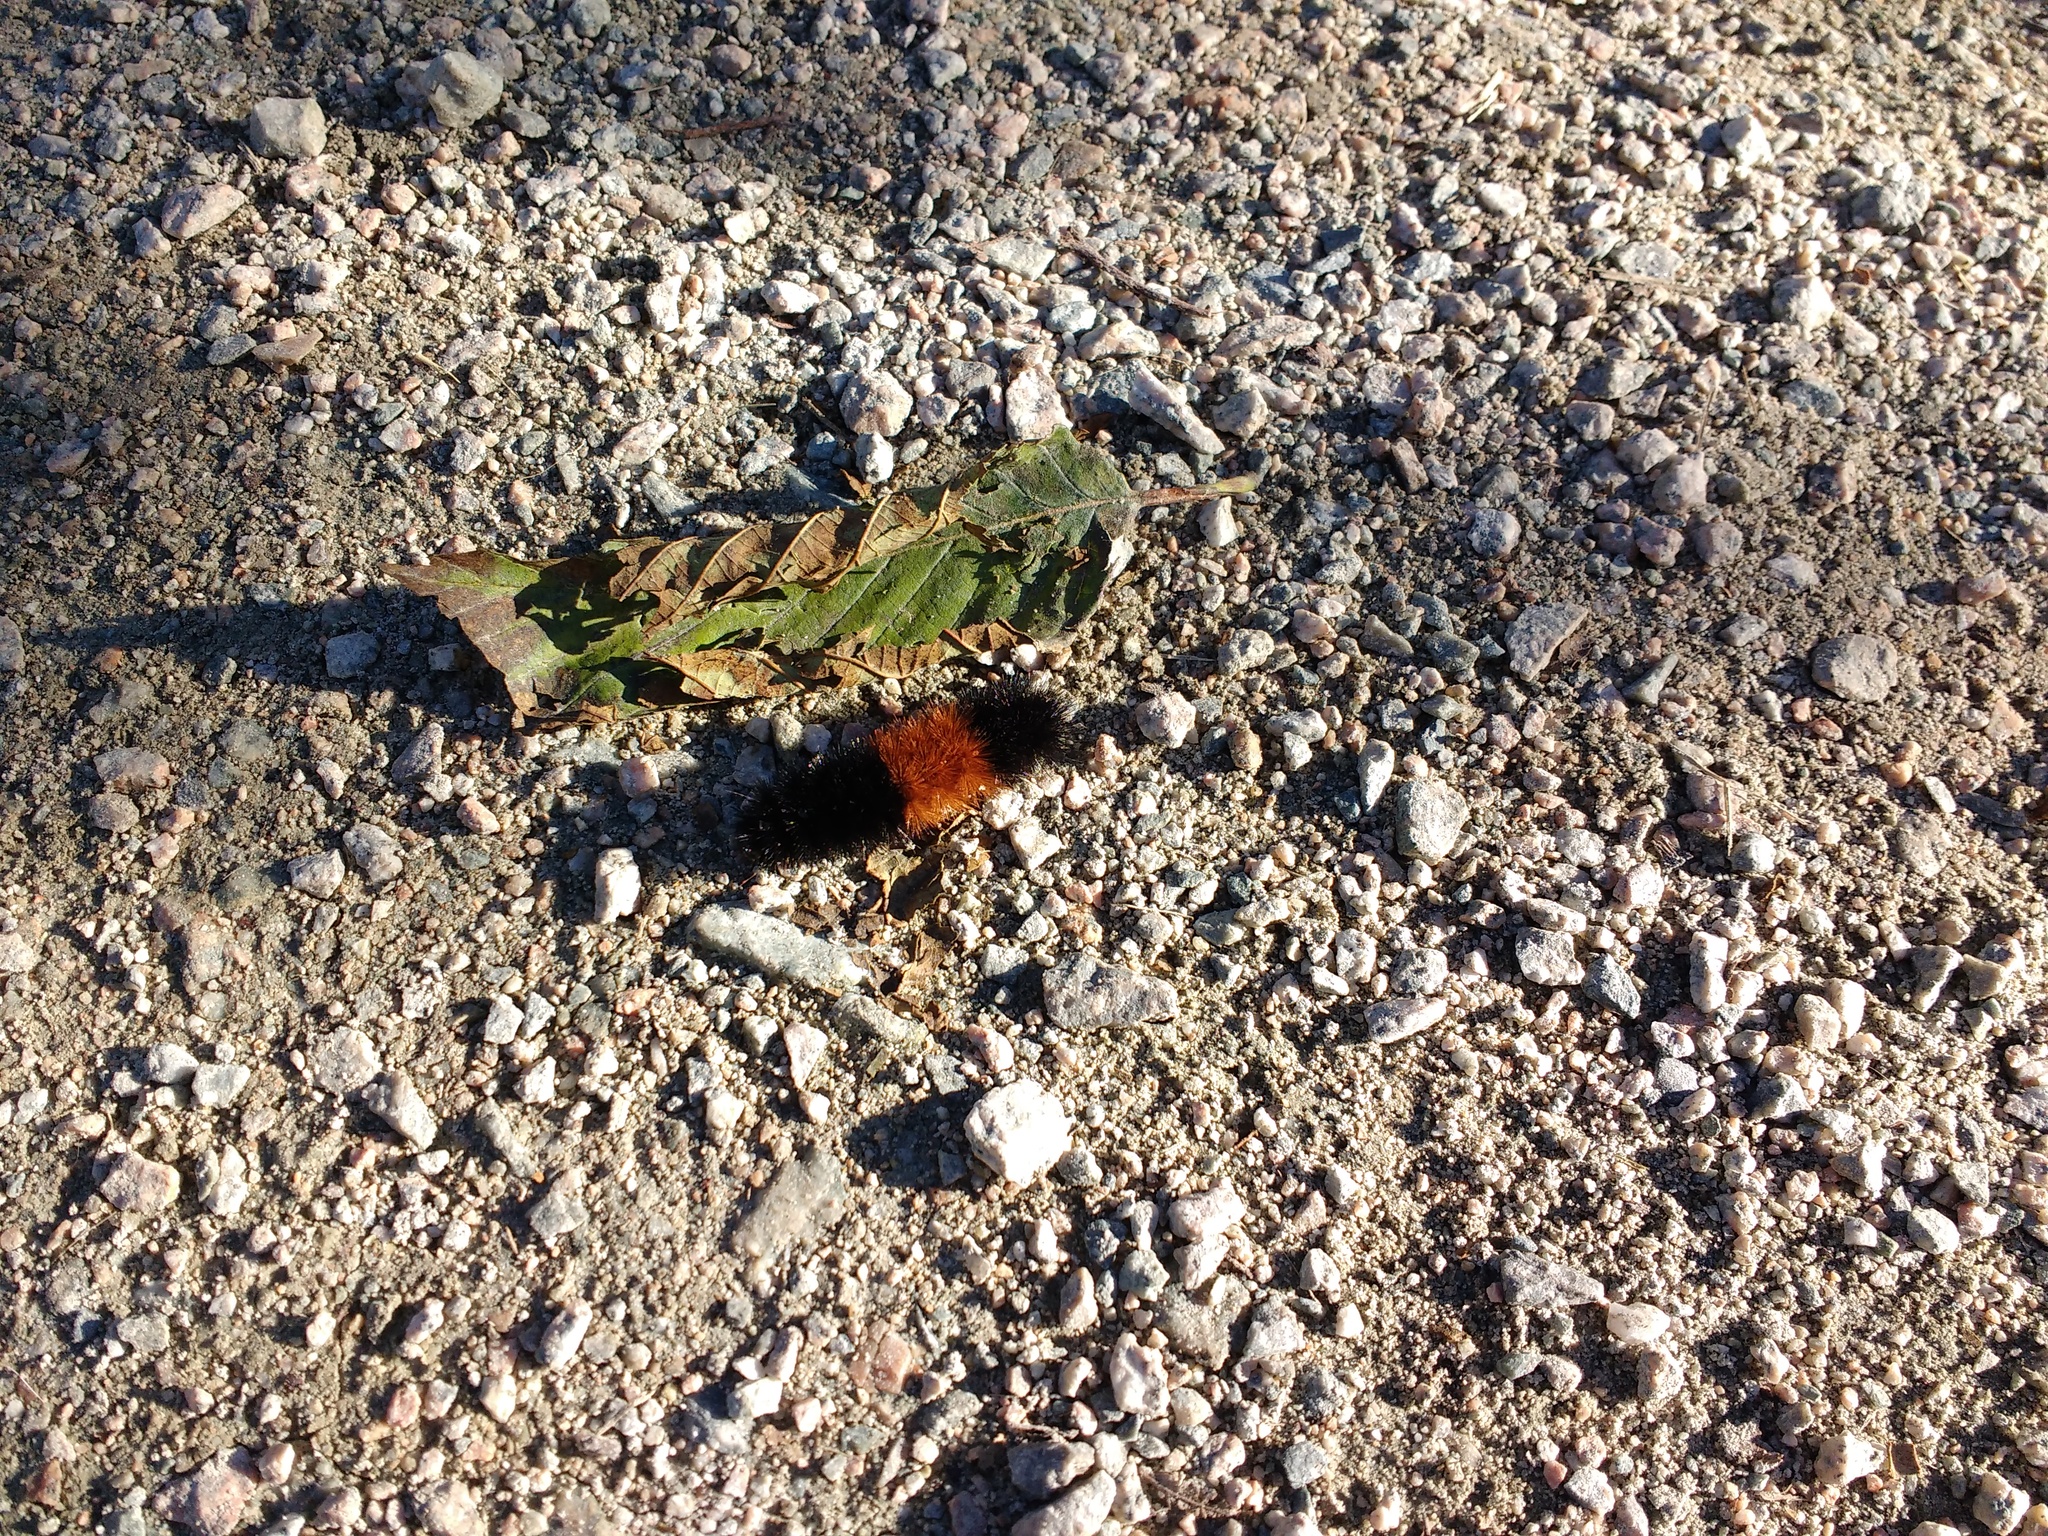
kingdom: Animalia
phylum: Arthropoda
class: Insecta
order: Lepidoptera
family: Erebidae
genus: Pyrrharctia
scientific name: Pyrrharctia isabella
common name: Isabella tiger moth
